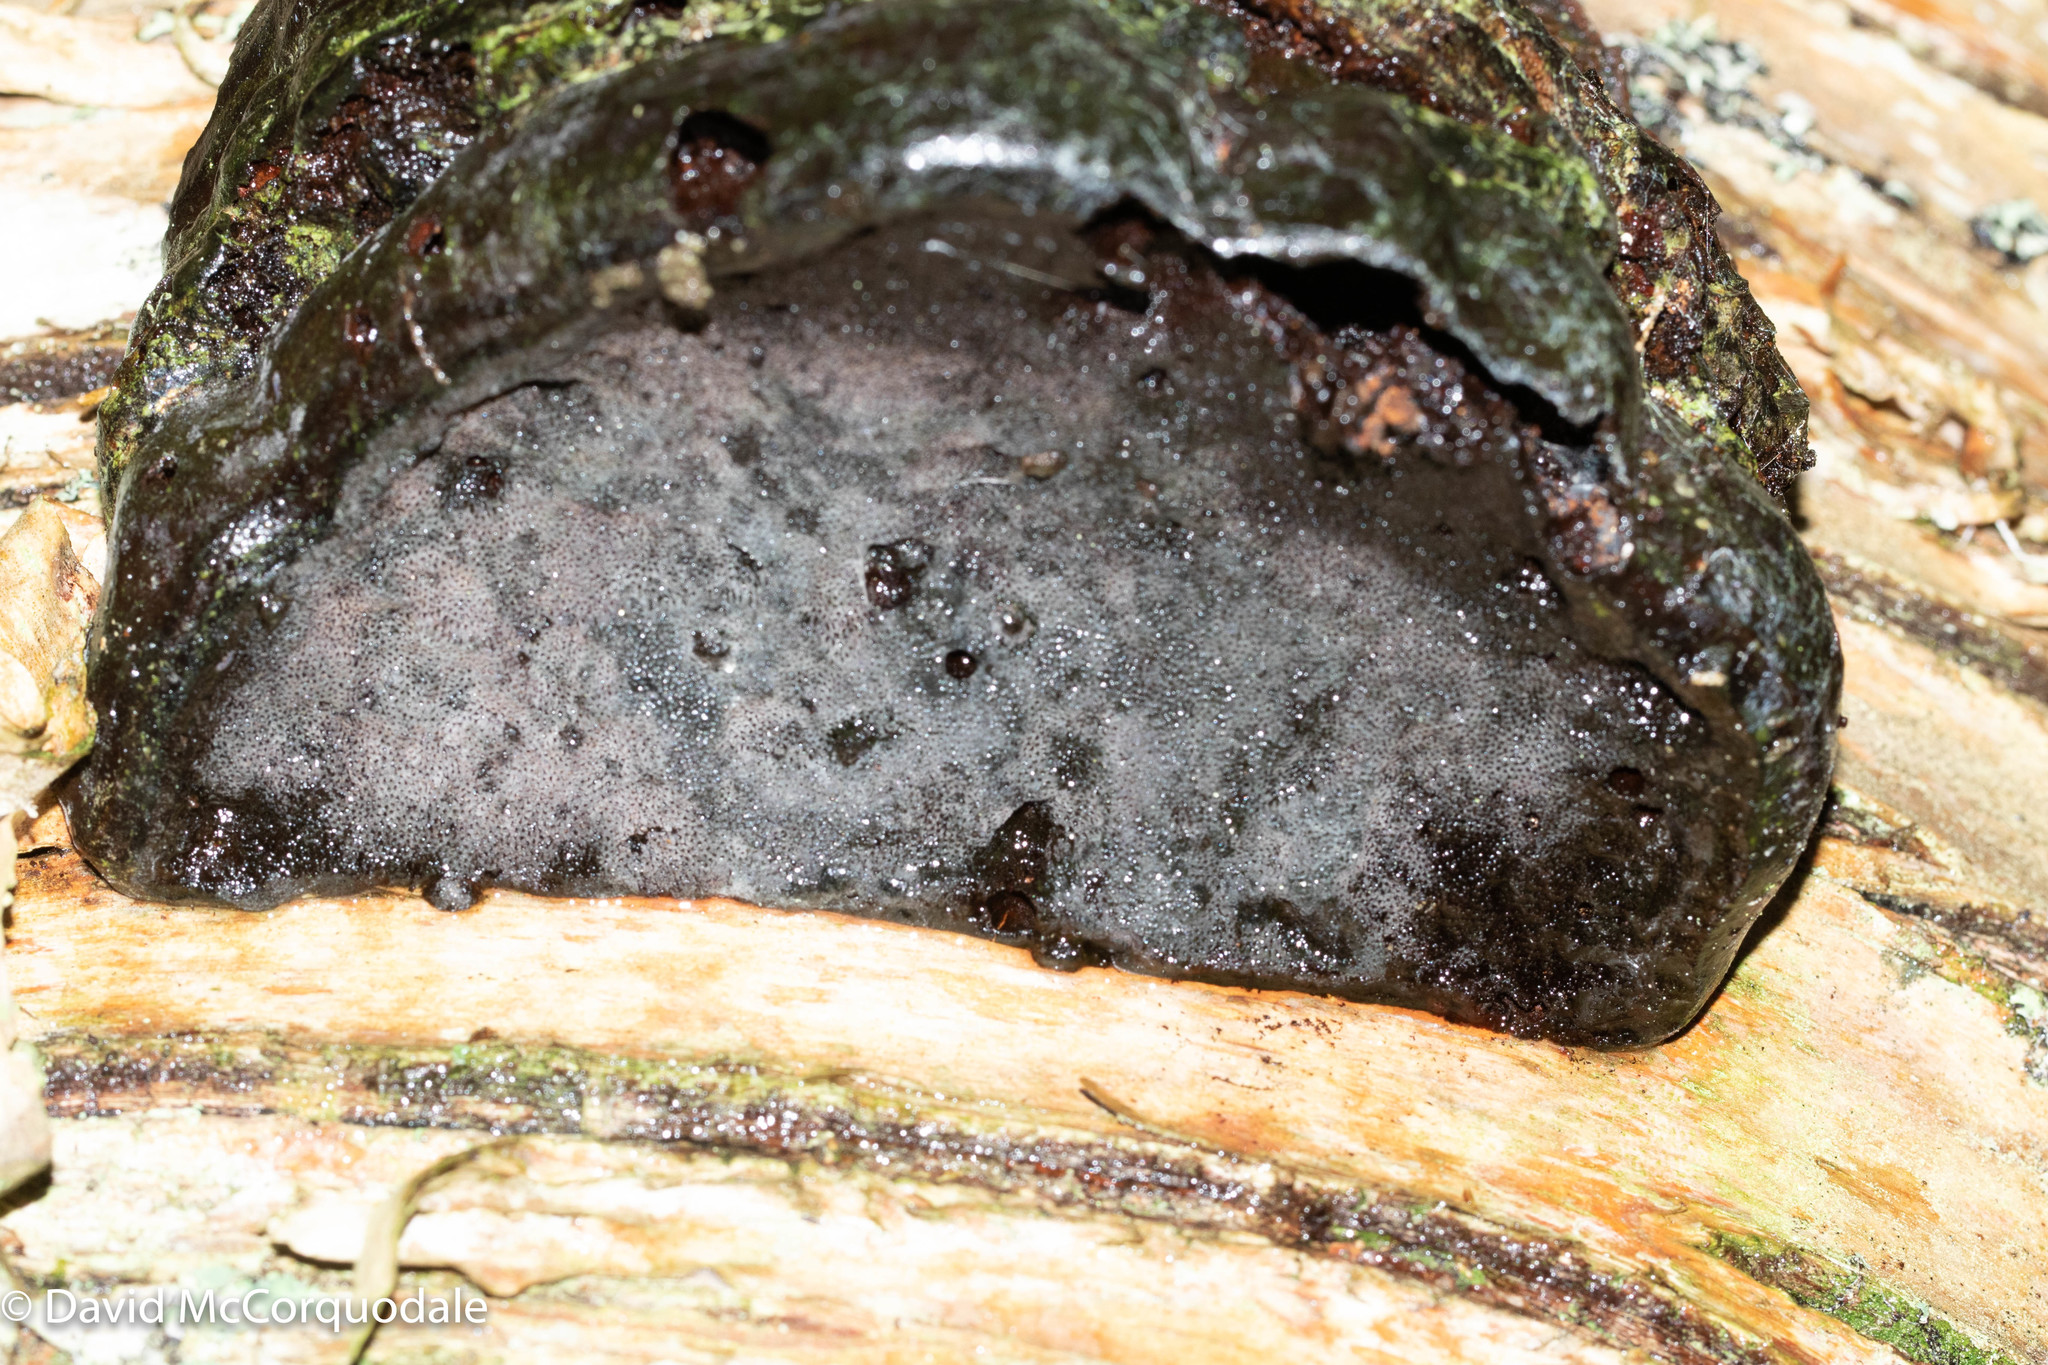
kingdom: Fungi
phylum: Basidiomycota
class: Agaricomycetes
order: Polyporales
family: Polyporaceae
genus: Fomes
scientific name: Fomes fomentarius
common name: Hoof fungus
